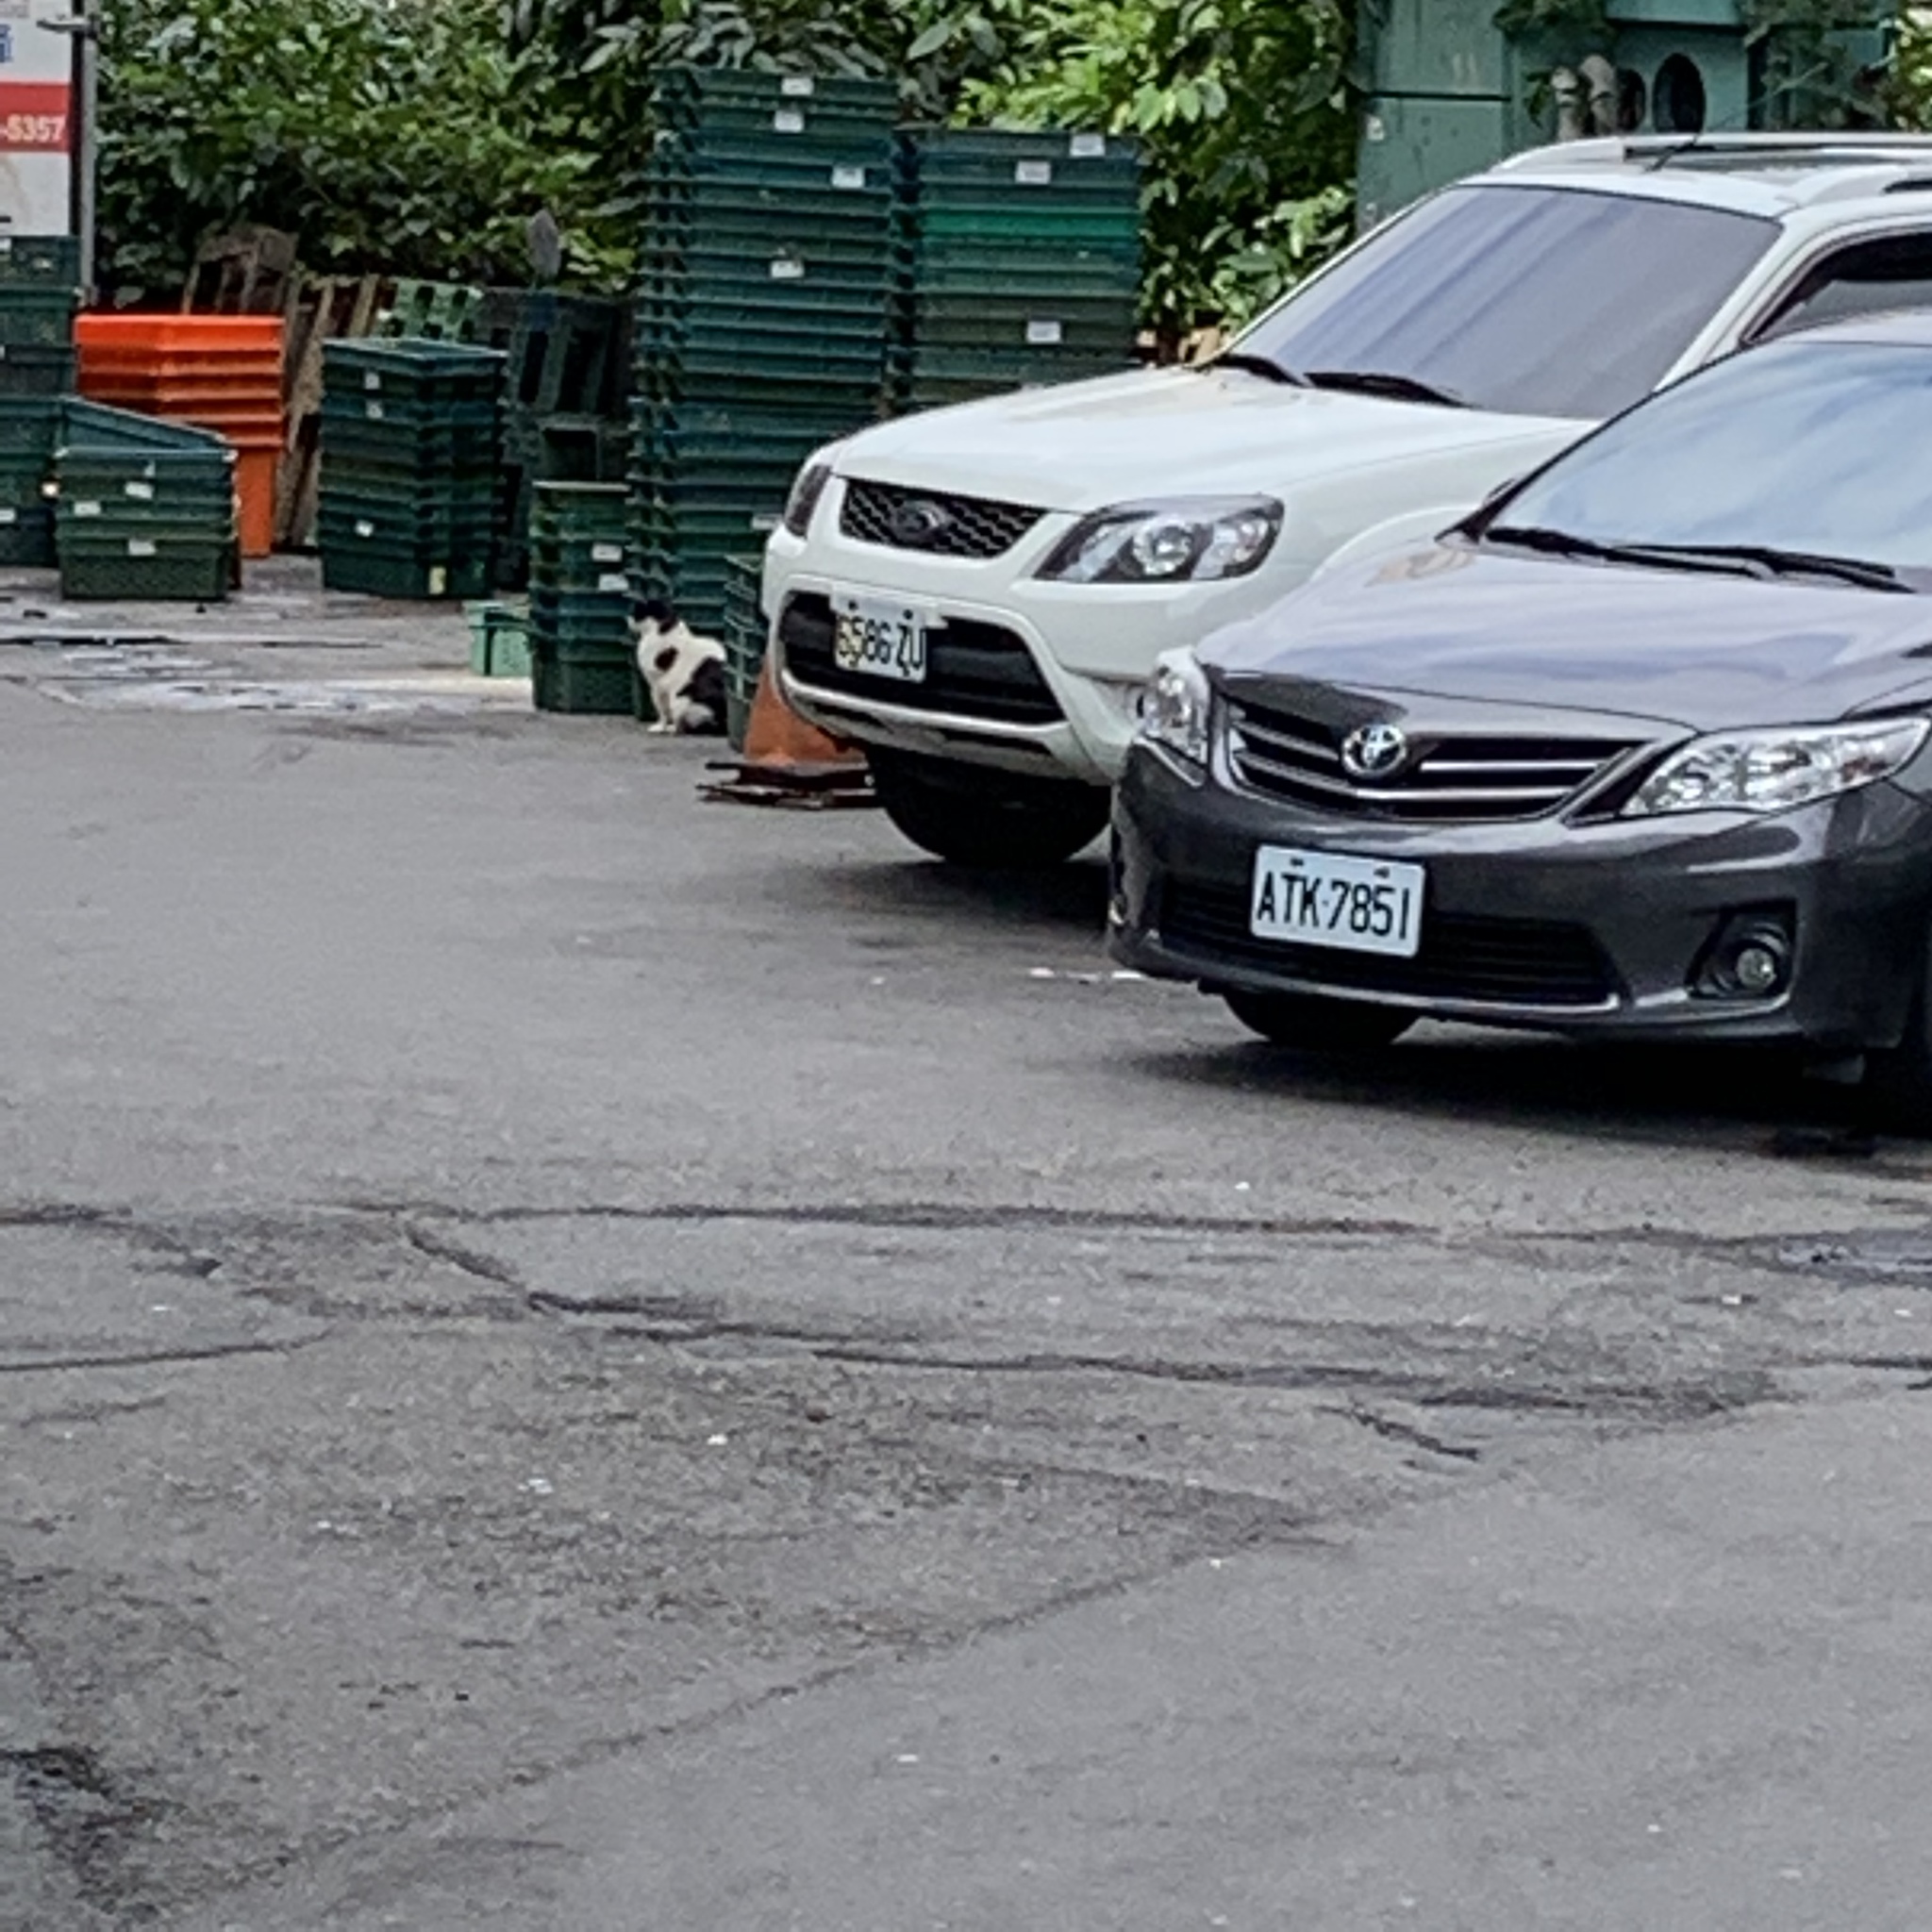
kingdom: Animalia
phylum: Chordata
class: Mammalia
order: Carnivora
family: Felidae
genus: Felis
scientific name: Felis catus
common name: Domestic cat
